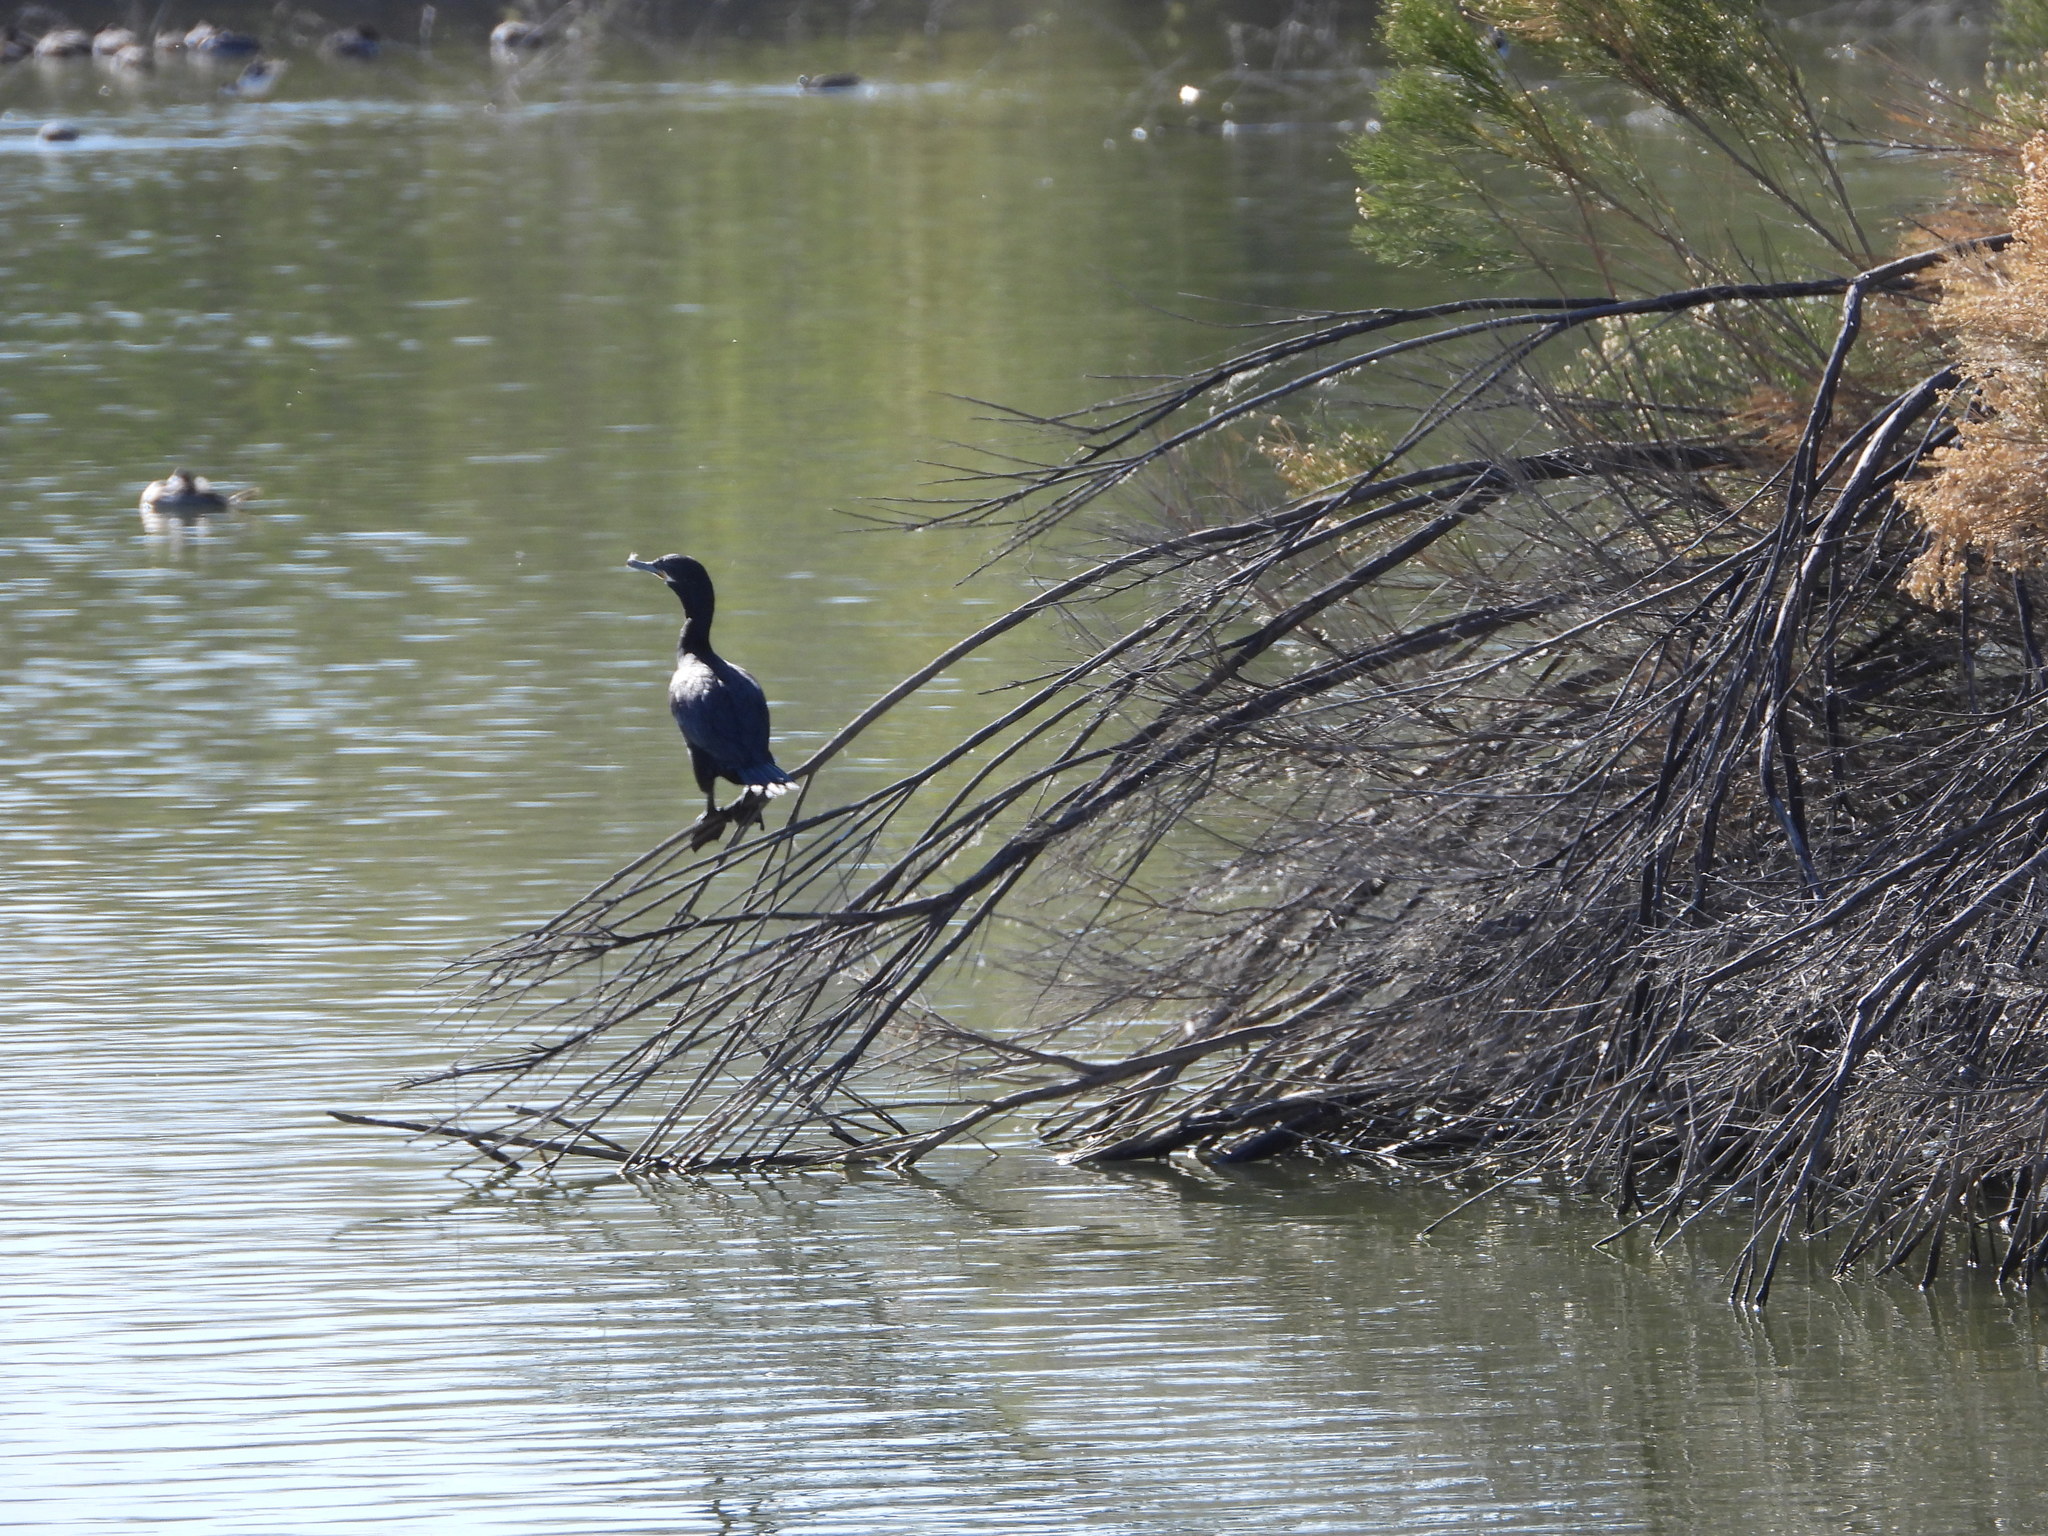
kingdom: Animalia
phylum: Chordata
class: Aves
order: Suliformes
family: Phalacrocoracidae
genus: Phalacrocorax
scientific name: Phalacrocorax brasilianus
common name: Neotropic cormorant
